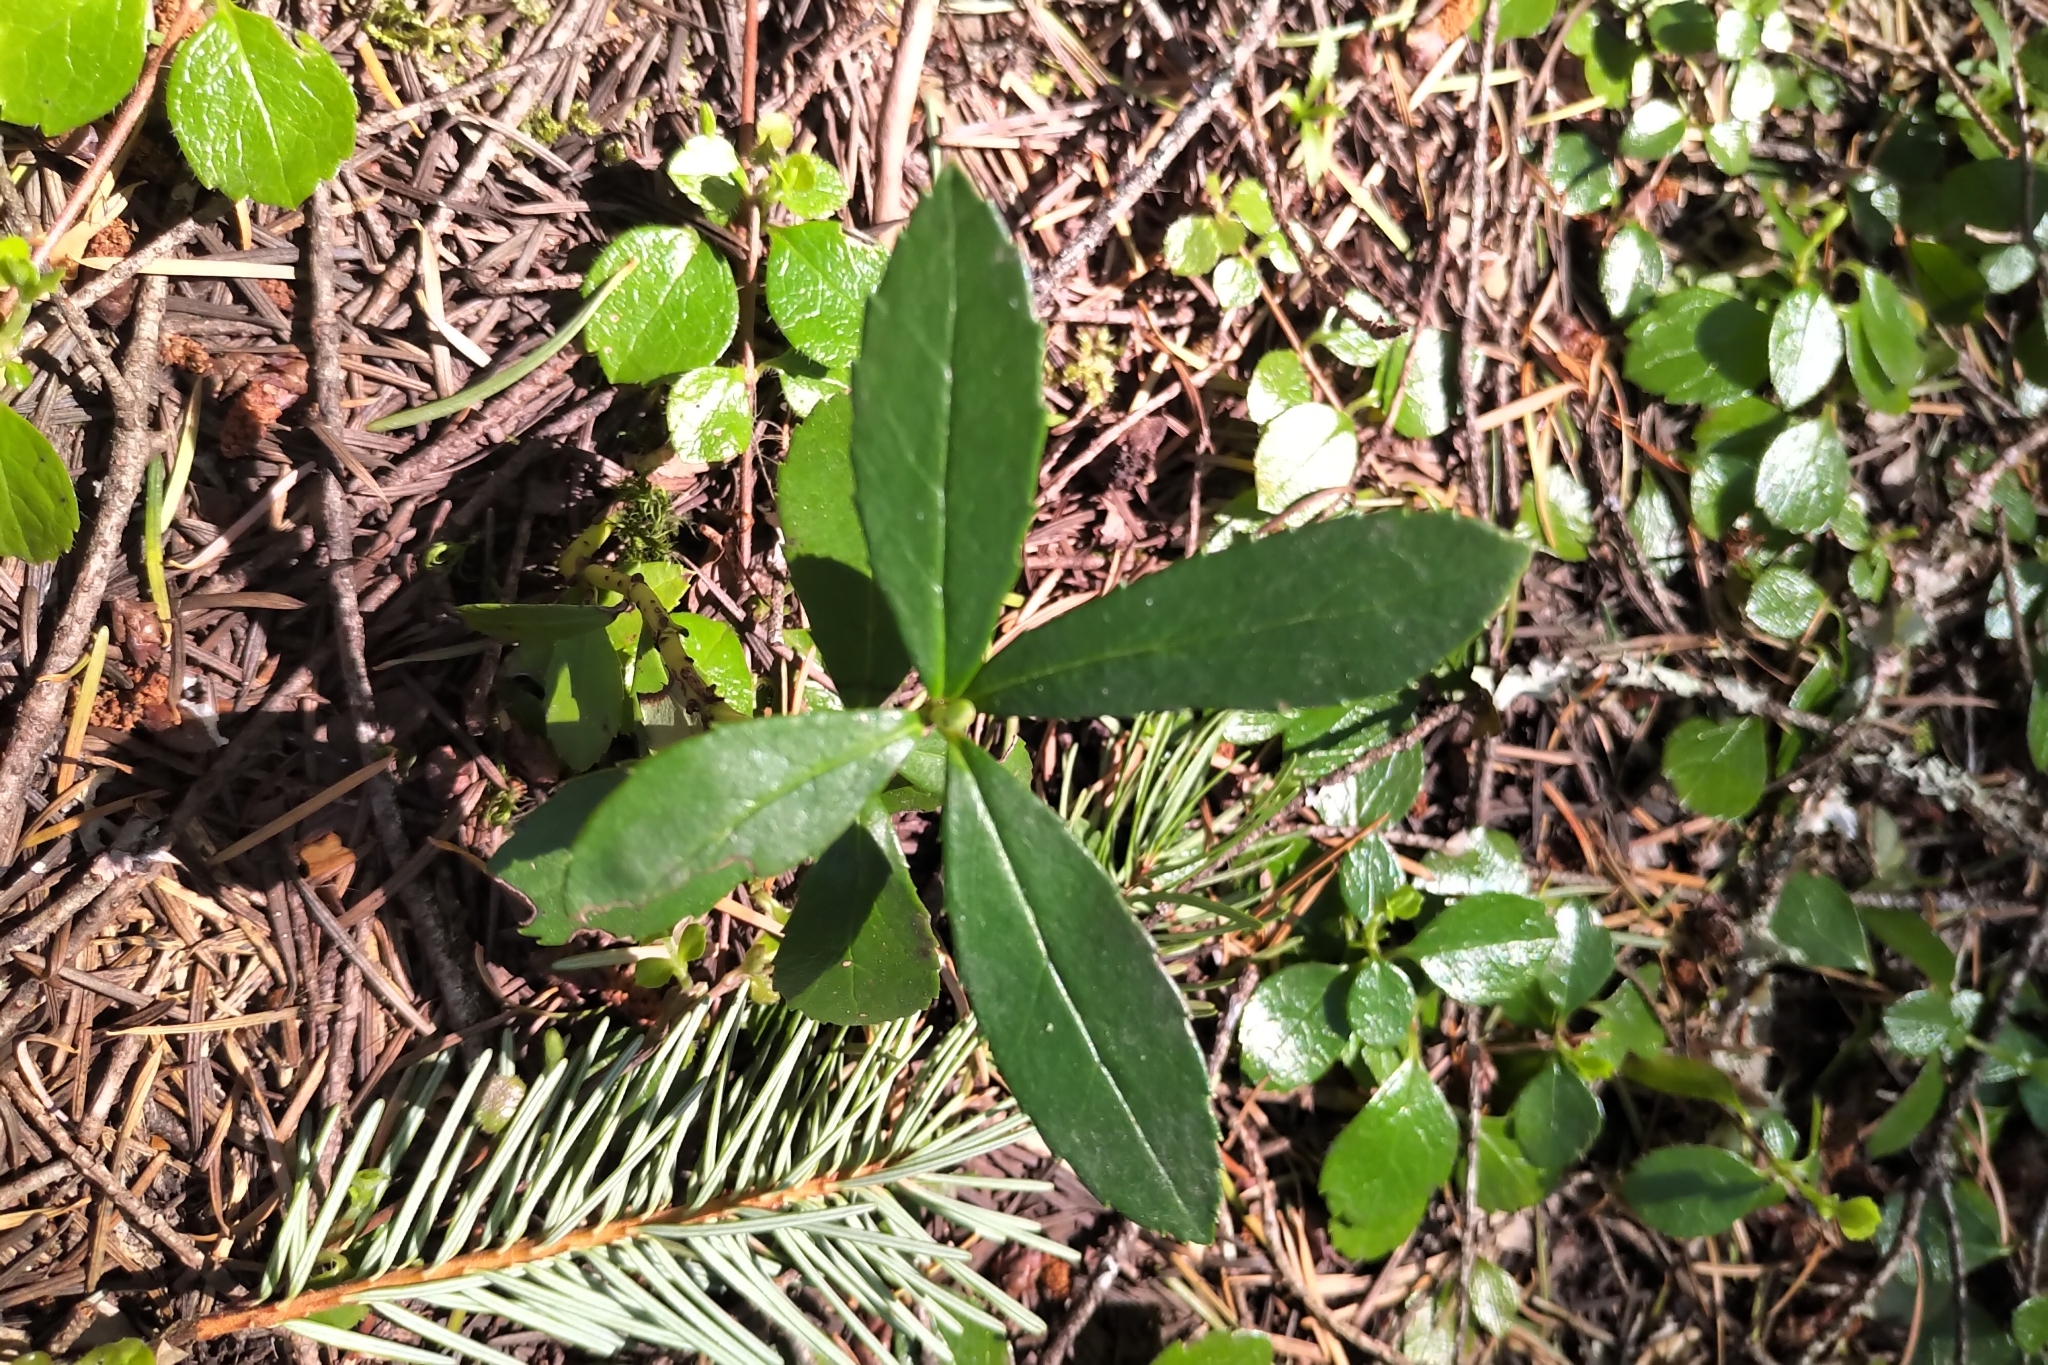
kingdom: Plantae
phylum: Tracheophyta
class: Magnoliopsida
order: Ericales
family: Ericaceae
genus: Chimaphila
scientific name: Chimaphila umbellata
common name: Pipsissewa
